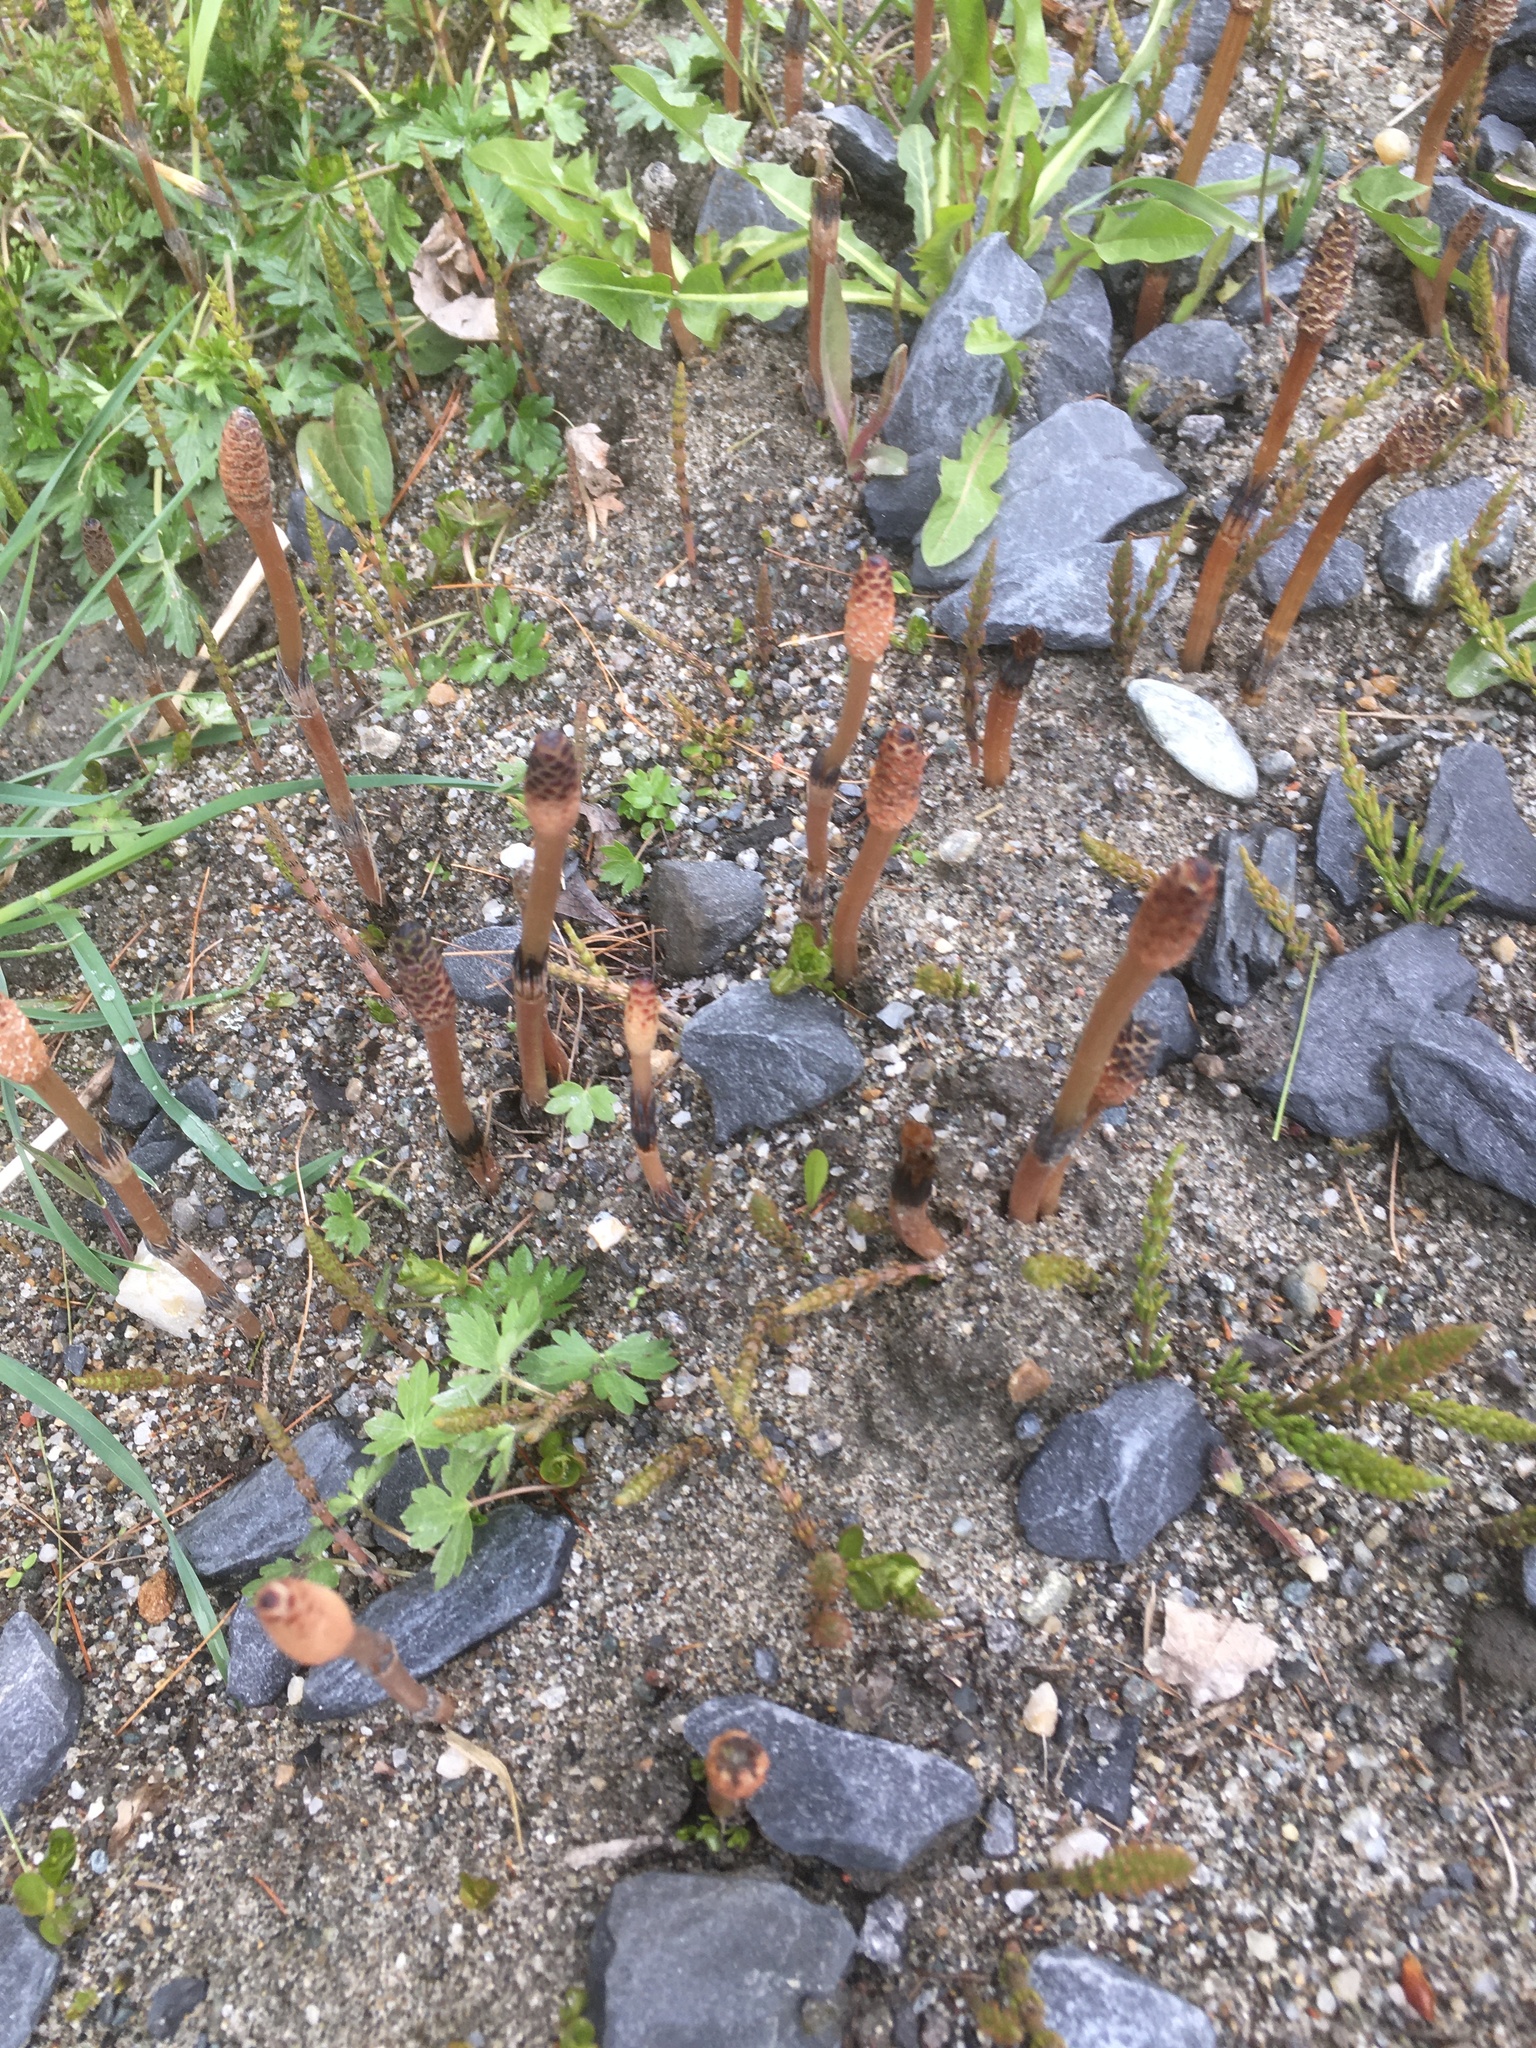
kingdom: Plantae
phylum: Tracheophyta
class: Polypodiopsida
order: Equisetales
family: Equisetaceae
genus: Equisetum
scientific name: Equisetum arvense
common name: Field horsetail
